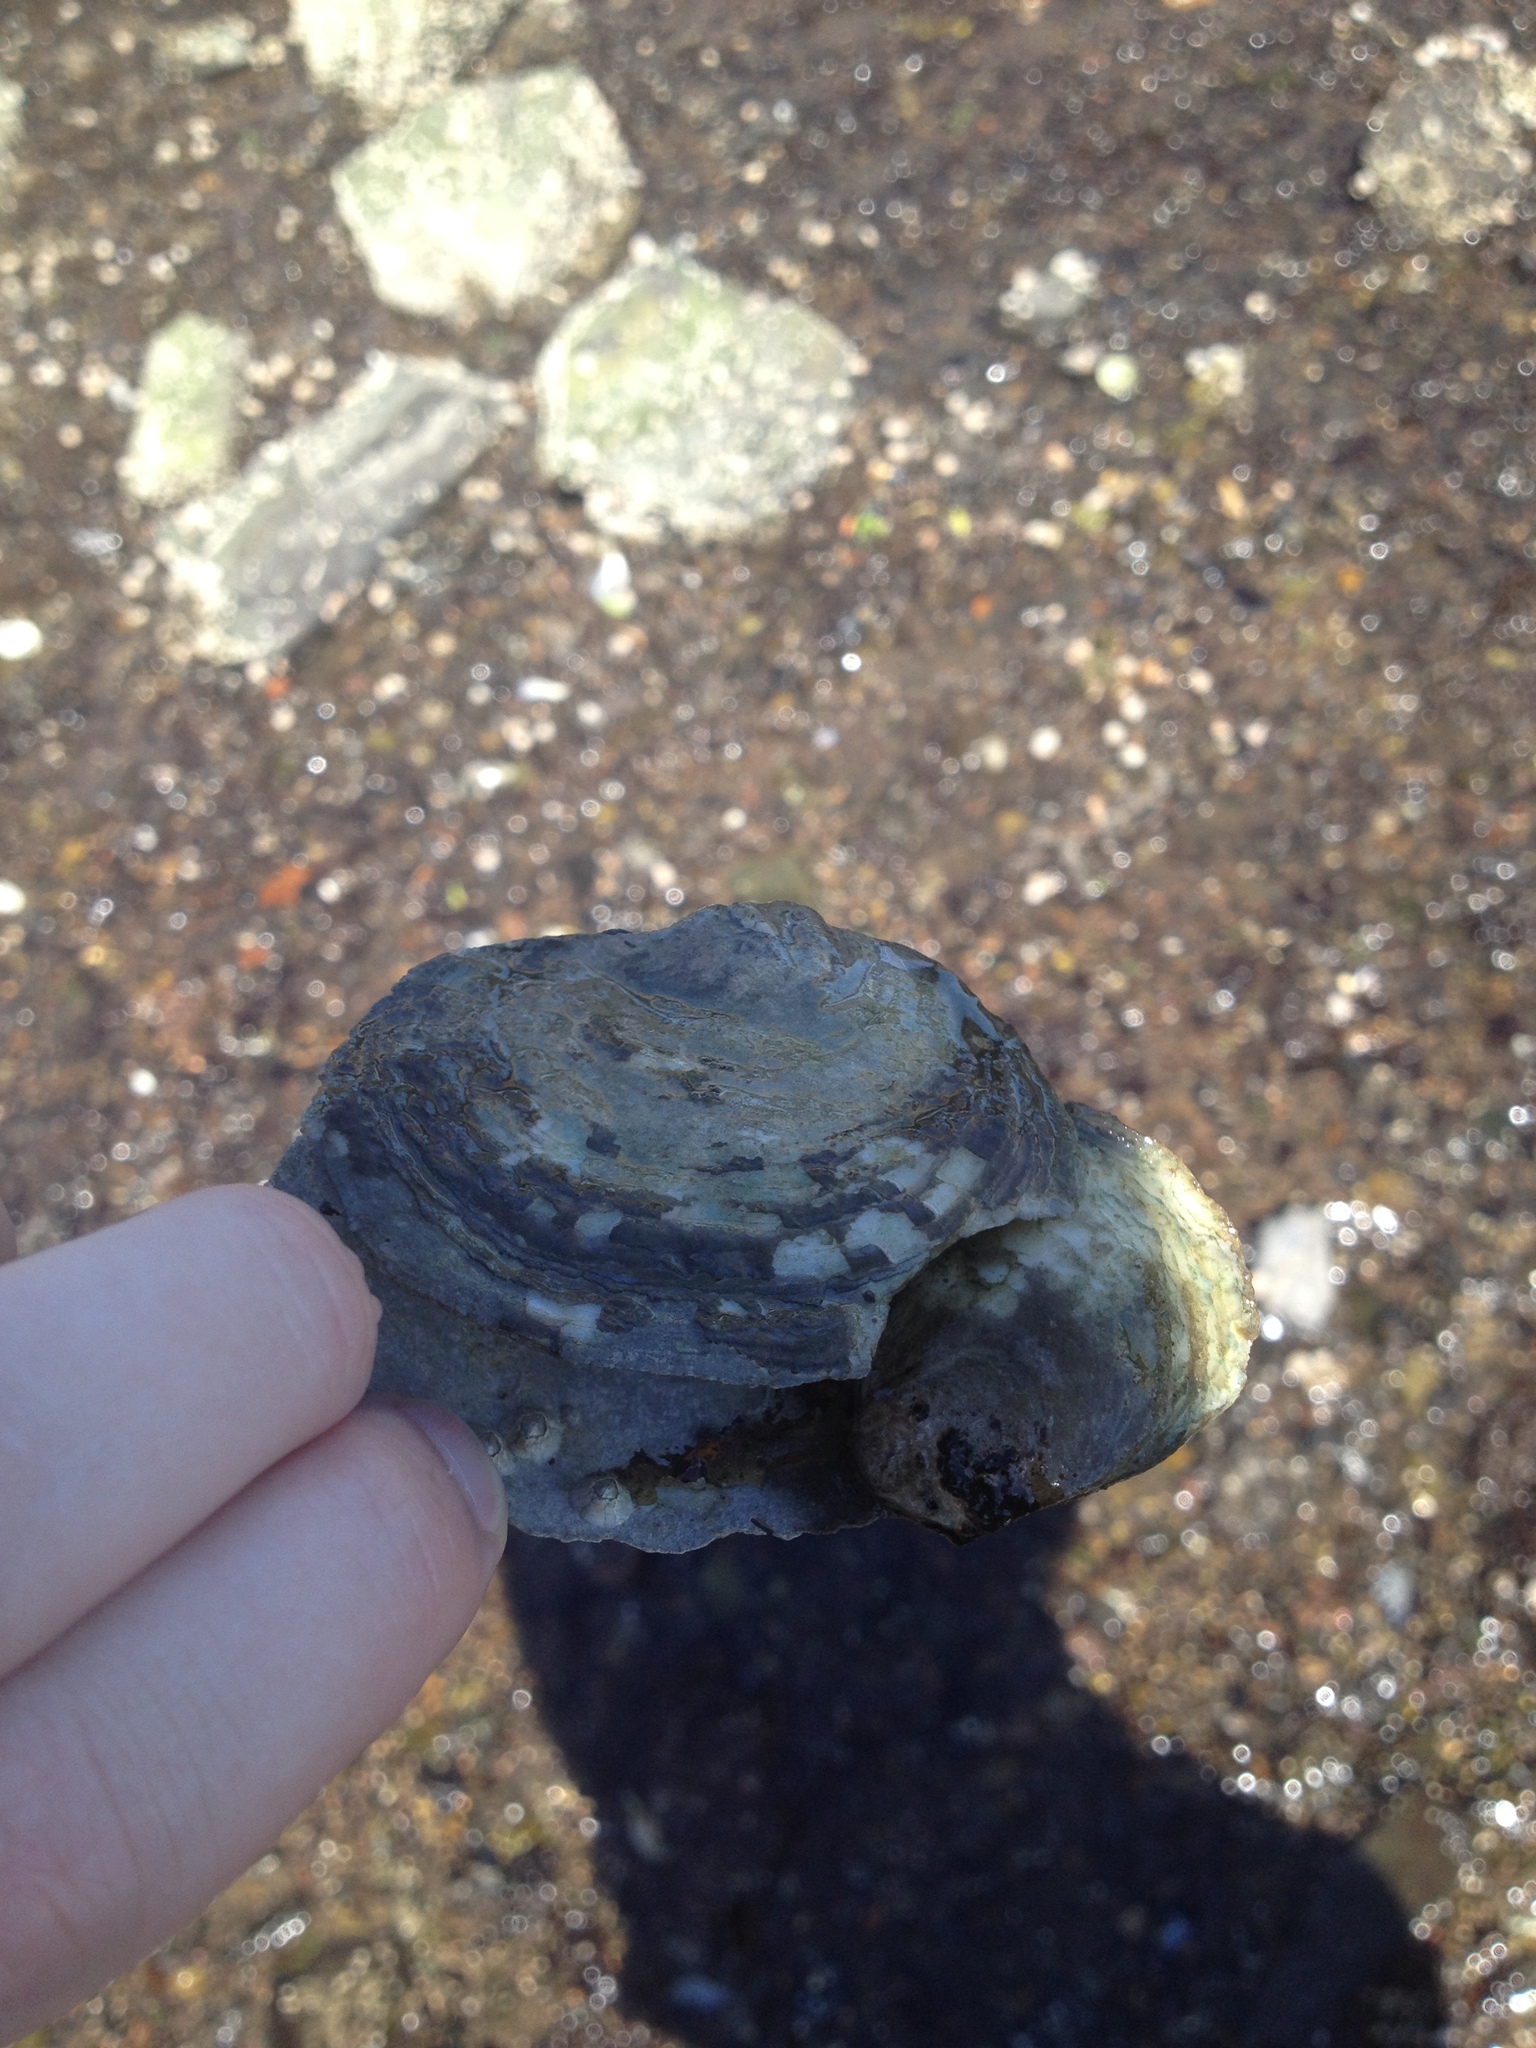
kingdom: Animalia
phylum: Mollusca
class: Bivalvia
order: Ostreida
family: Ostreidae
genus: Ostrea
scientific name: Ostrea edulis
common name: Flat oyster
